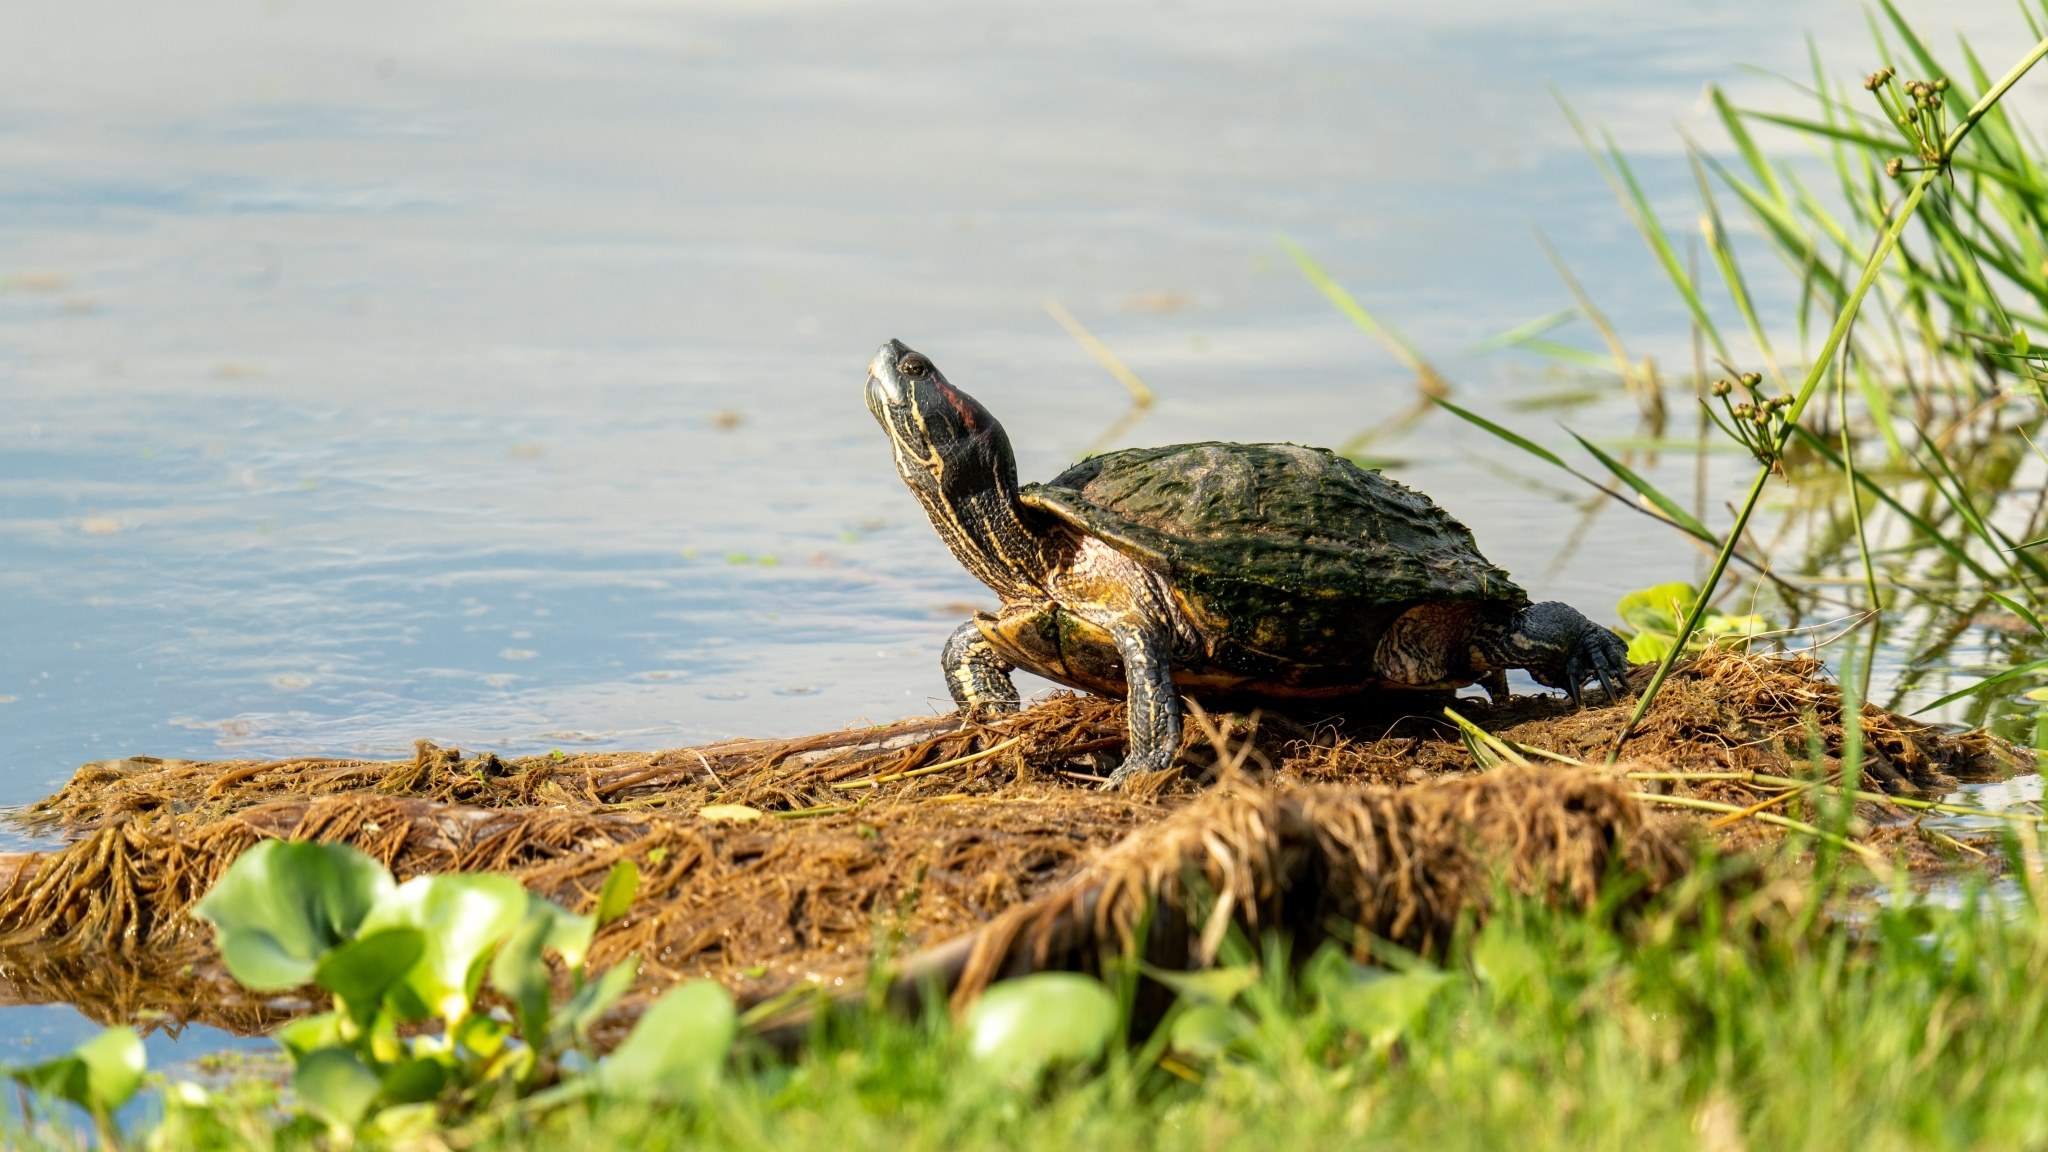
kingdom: Animalia
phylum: Chordata
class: Testudines
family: Emydidae
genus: Trachemys
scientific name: Trachemys scripta
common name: Slider
